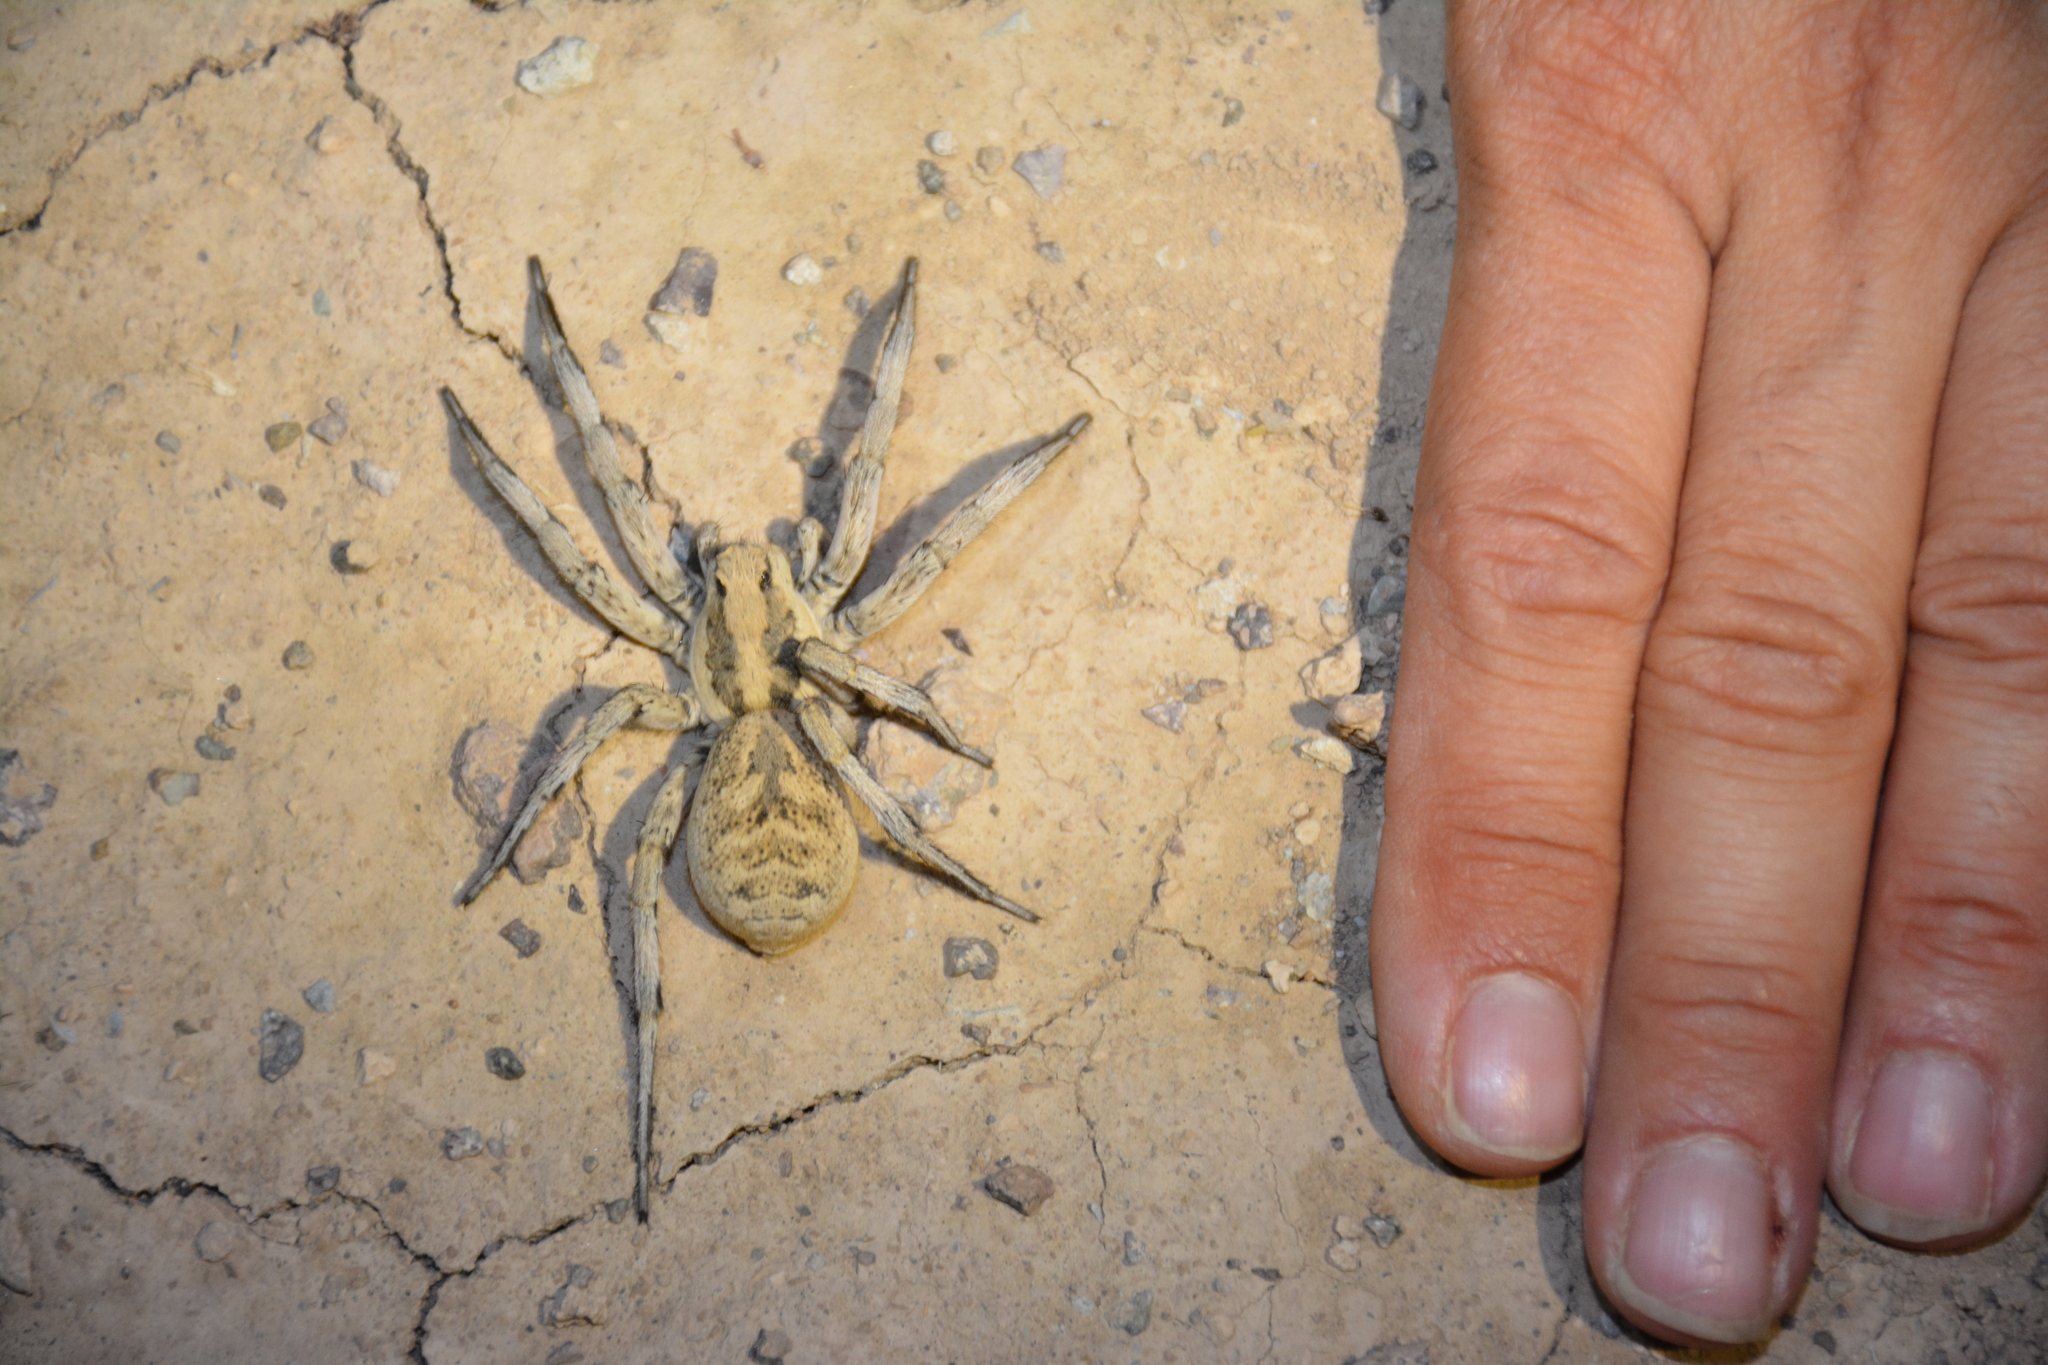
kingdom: Animalia
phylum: Arthropoda
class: Arachnida
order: Araneae
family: Lycosidae
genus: Lycosa
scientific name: Lycosa praegrandis
